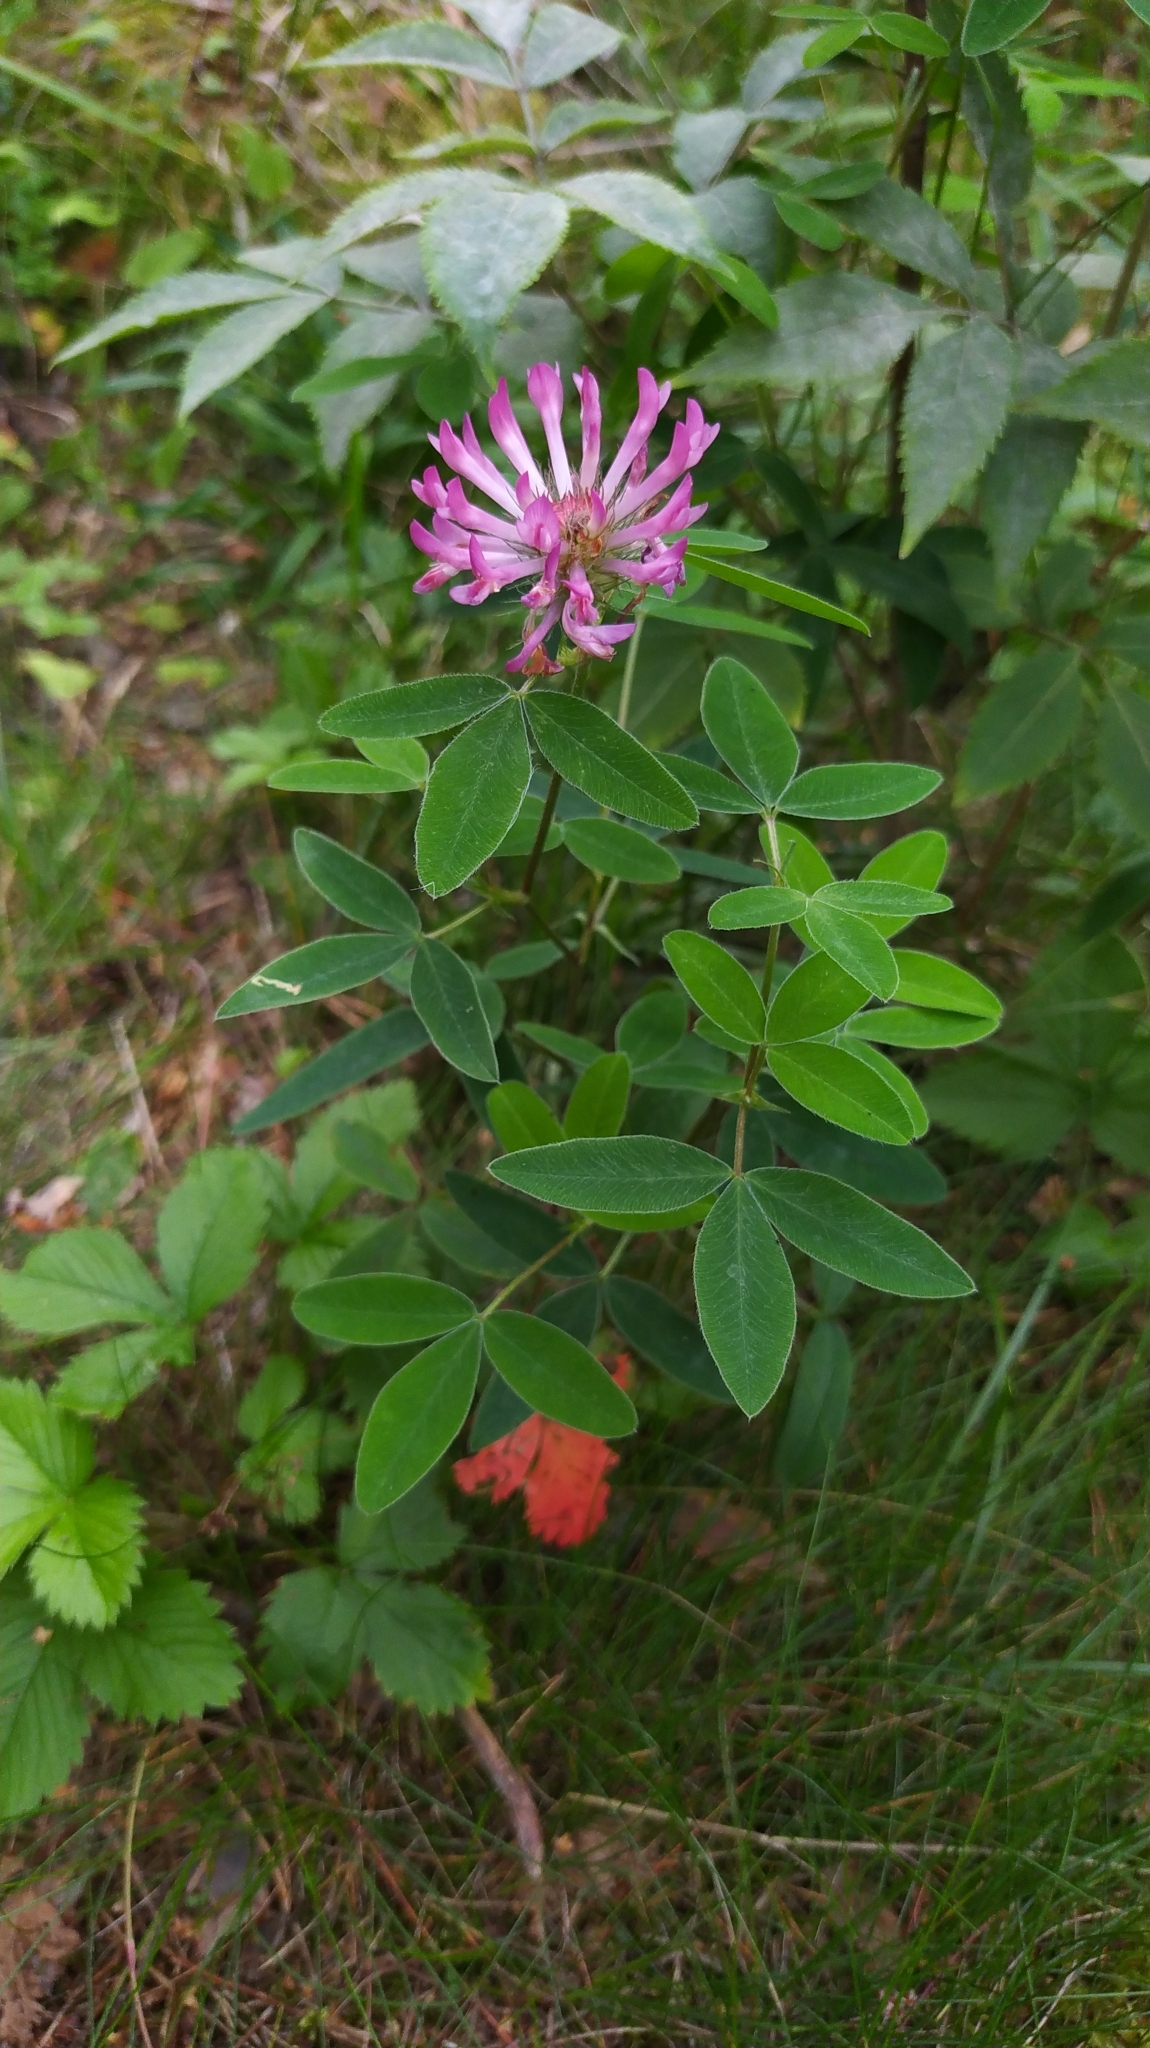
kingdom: Plantae
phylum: Tracheophyta
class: Magnoliopsida
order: Fabales
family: Fabaceae
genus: Trifolium
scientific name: Trifolium medium
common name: Zigzag clover
